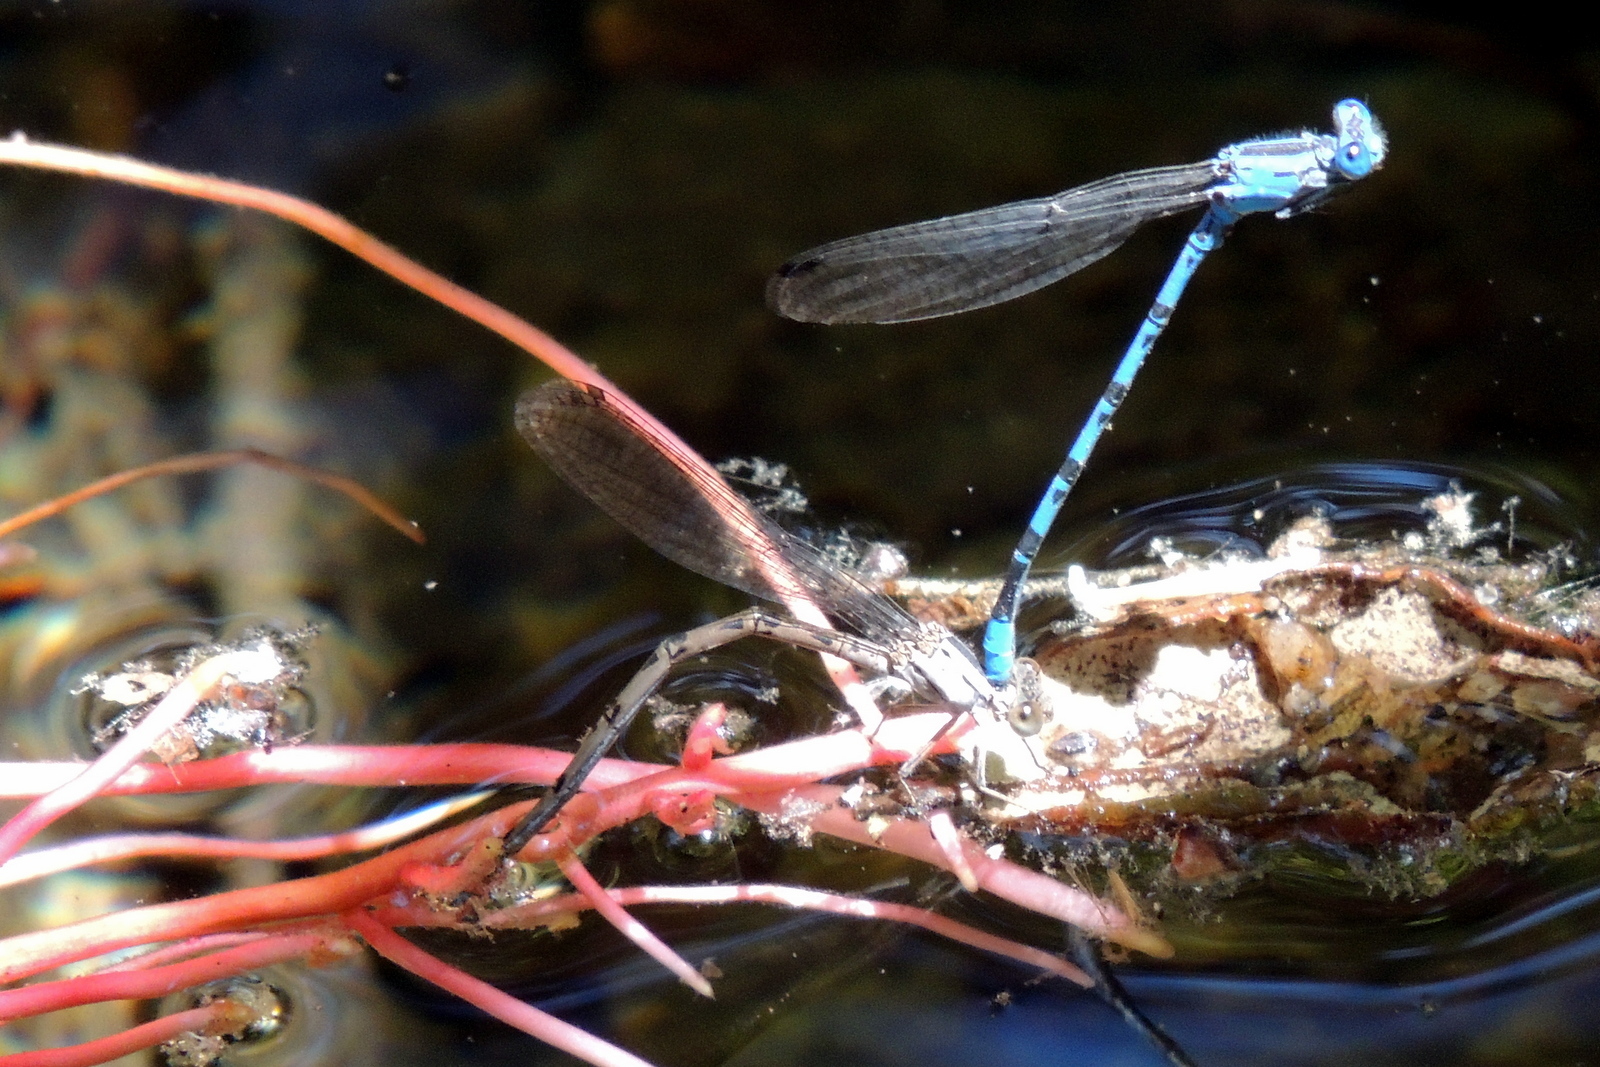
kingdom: Animalia
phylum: Arthropoda
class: Insecta
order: Odonata
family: Coenagrionidae
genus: Argia
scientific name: Argia vivida
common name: Vivid dancer
